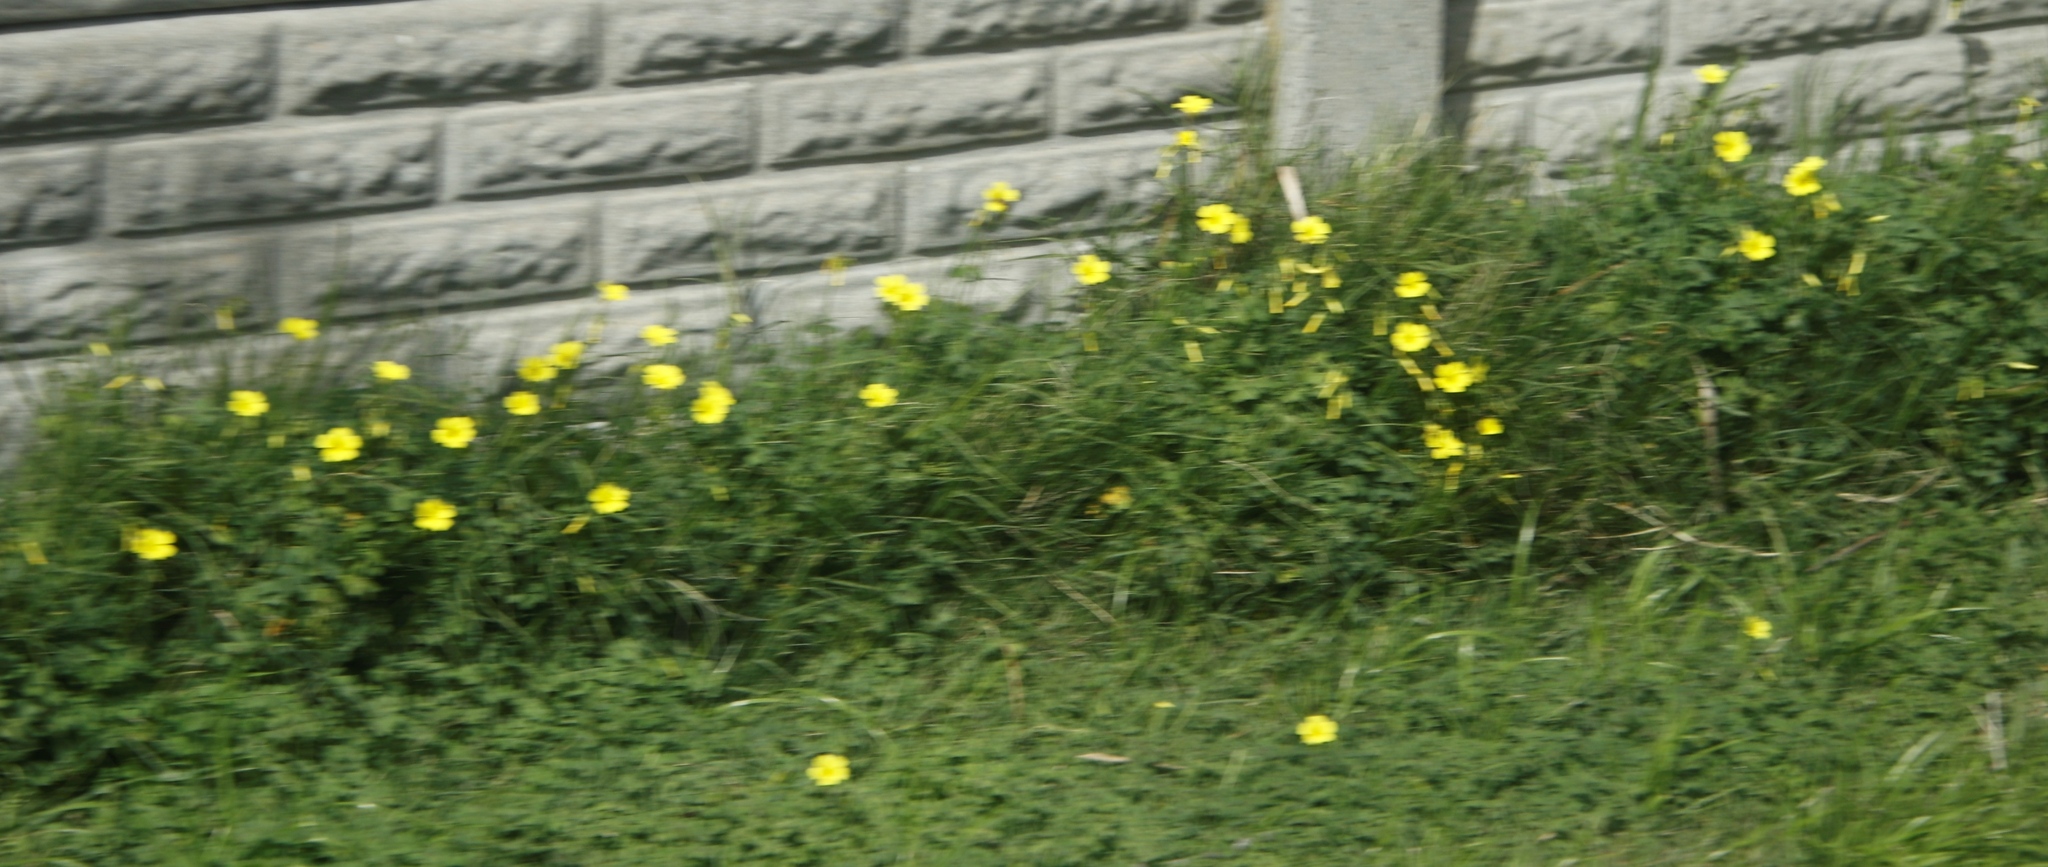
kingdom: Plantae
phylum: Tracheophyta
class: Magnoliopsida
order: Oxalidales
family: Oxalidaceae
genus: Oxalis
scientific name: Oxalis pes-caprae
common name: Bermuda-buttercup
